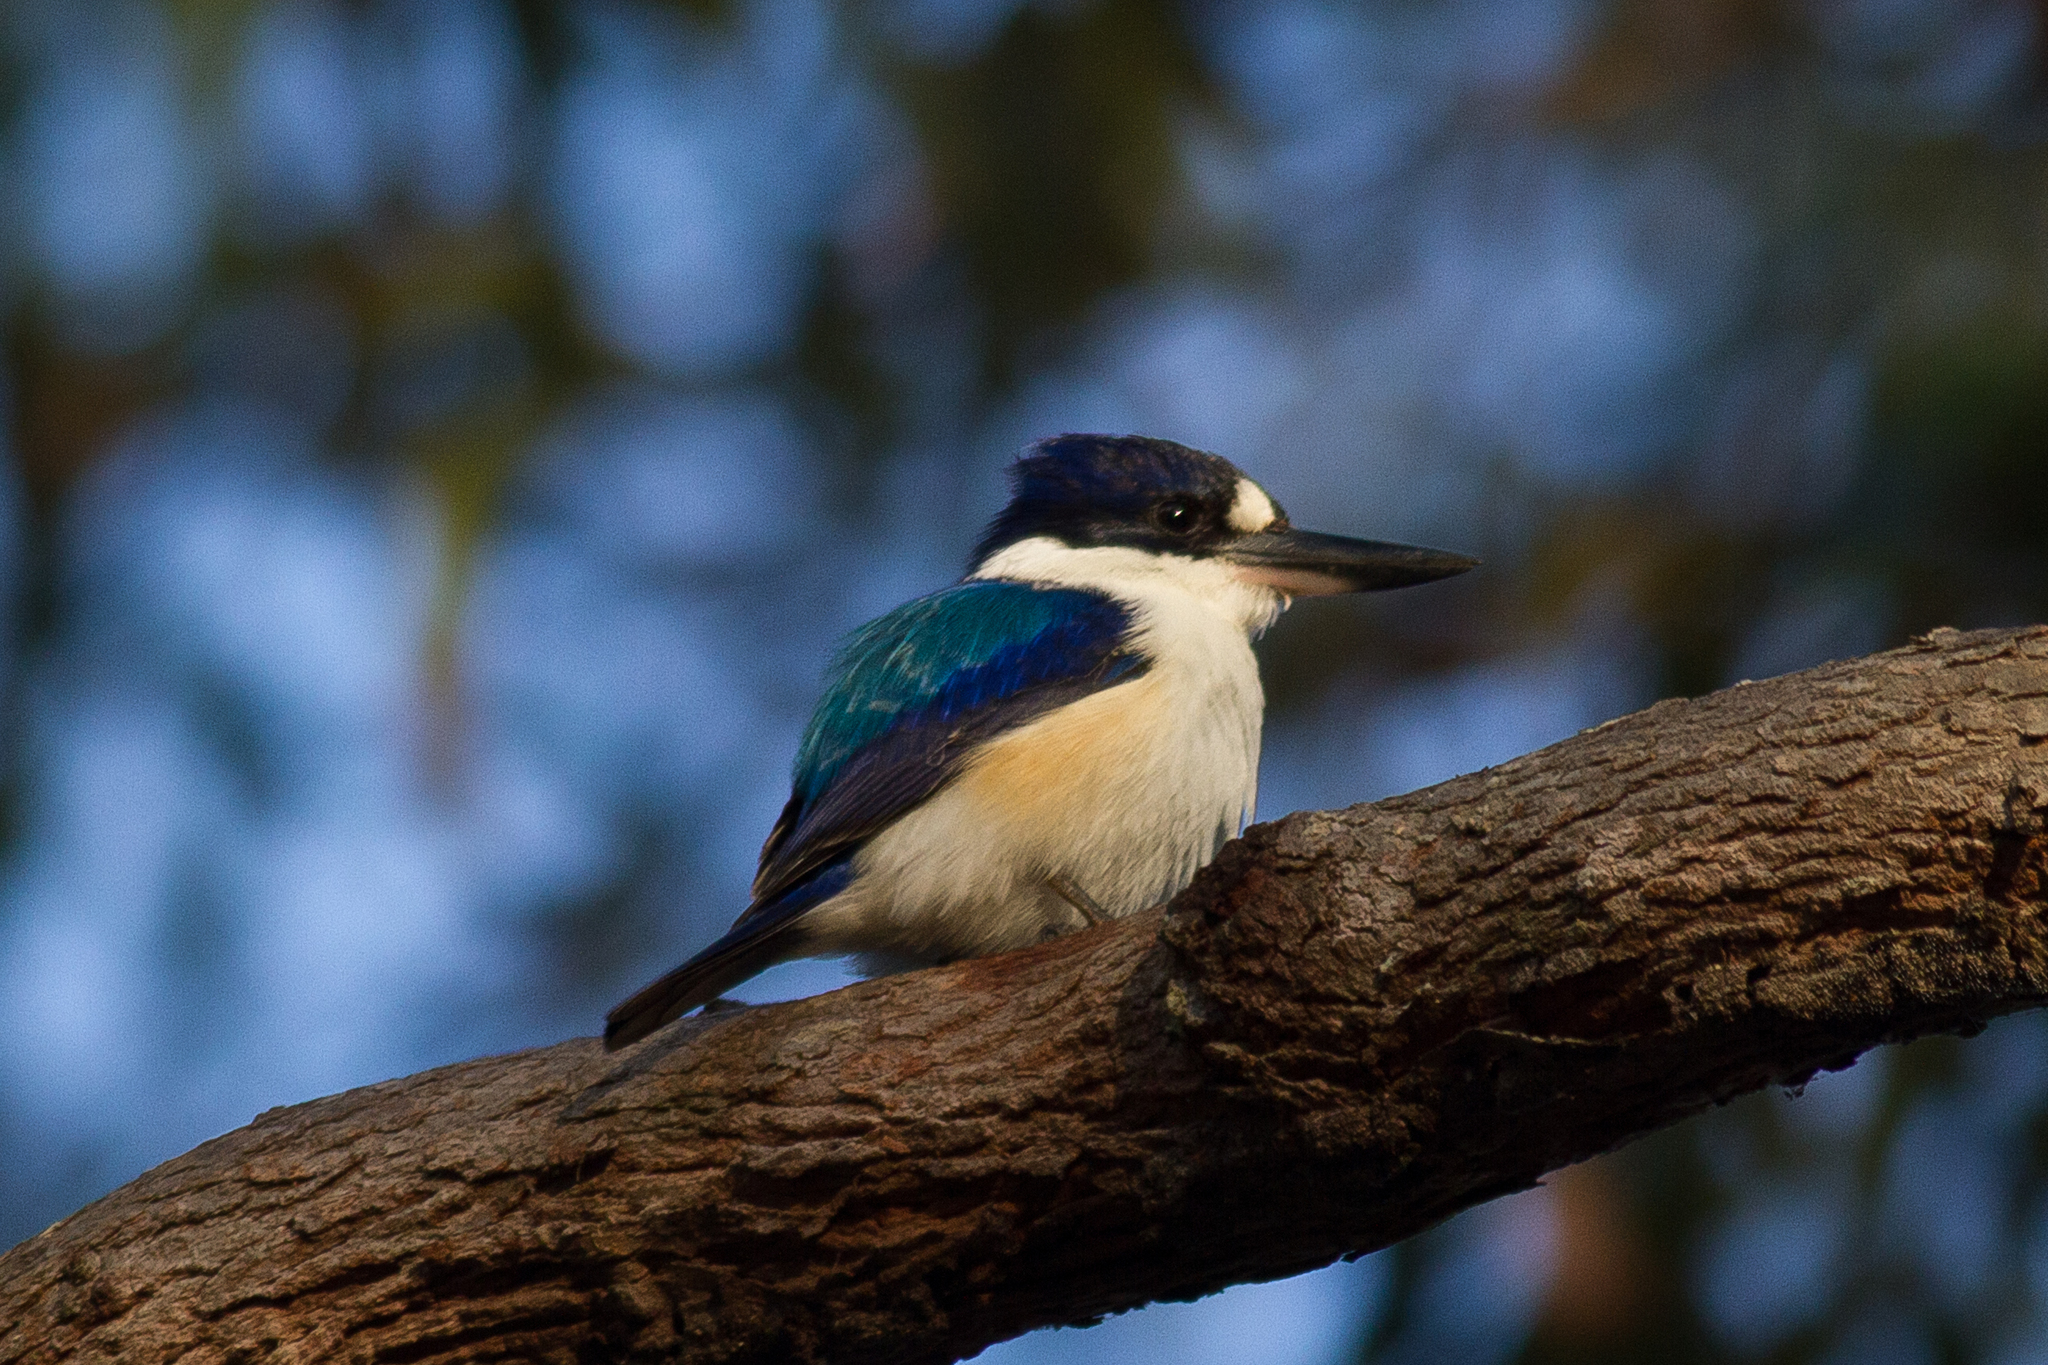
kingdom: Animalia
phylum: Chordata
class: Aves
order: Coraciiformes
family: Alcedinidae
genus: Todiramphus
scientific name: Todiramphus macleayii
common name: Forest kingfisher
